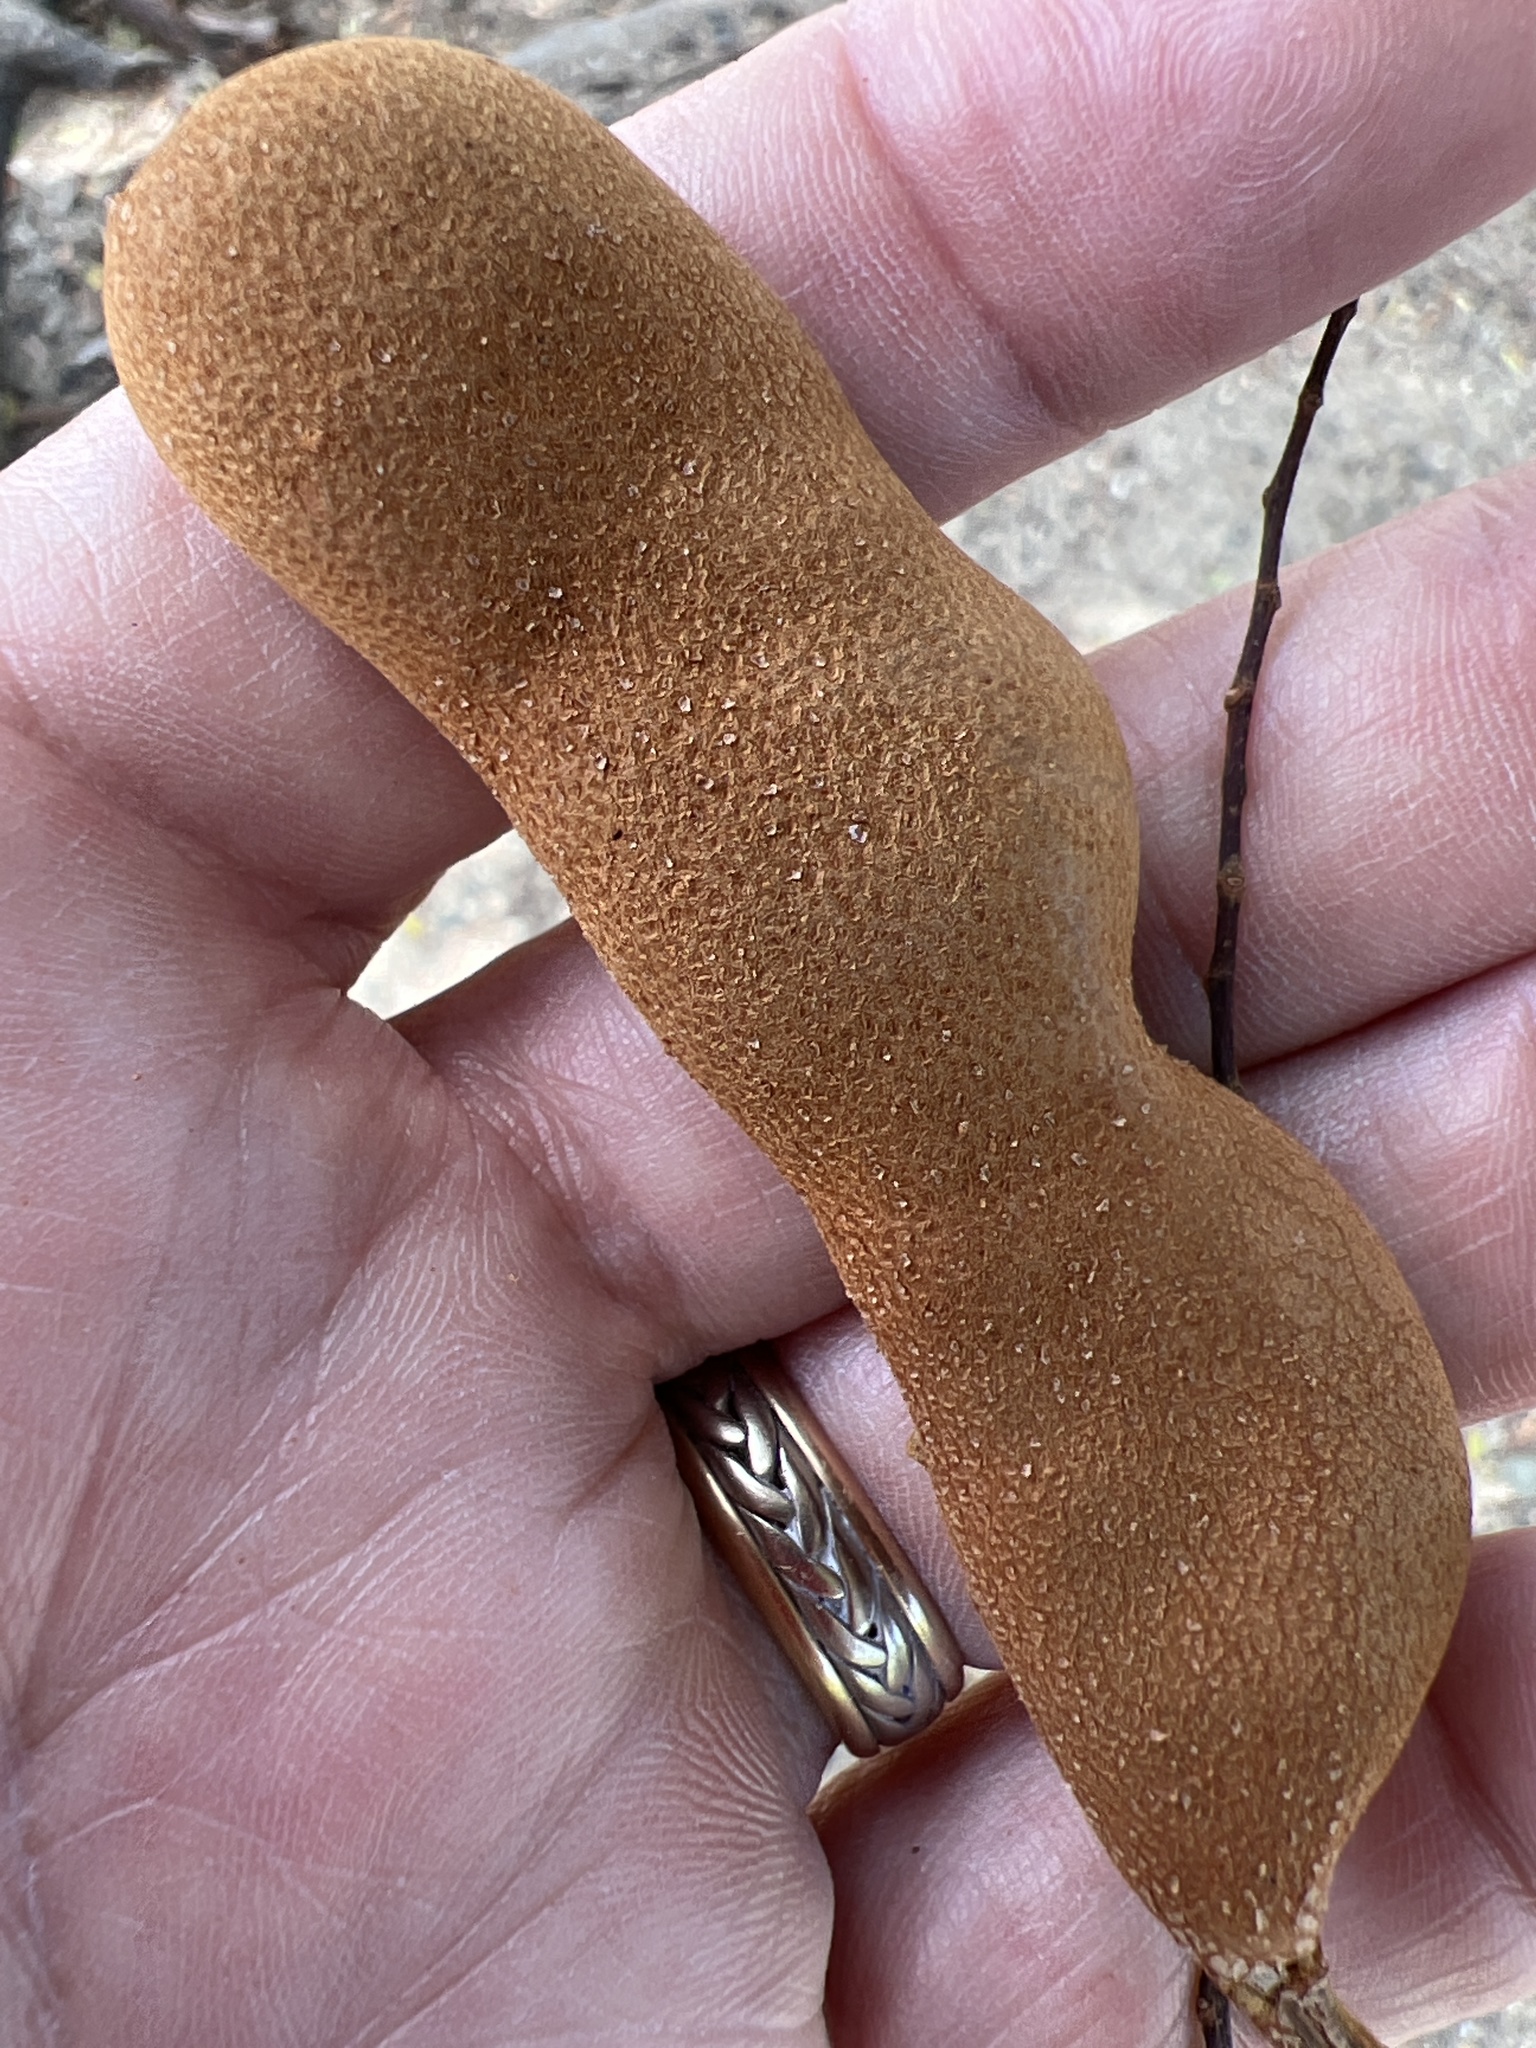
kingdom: Plantae
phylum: Tracheophyta
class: Magnoliopsida
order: Fabales
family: Fabaceae
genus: Tamarindus
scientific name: Tamarindus indica
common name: Tamarind
